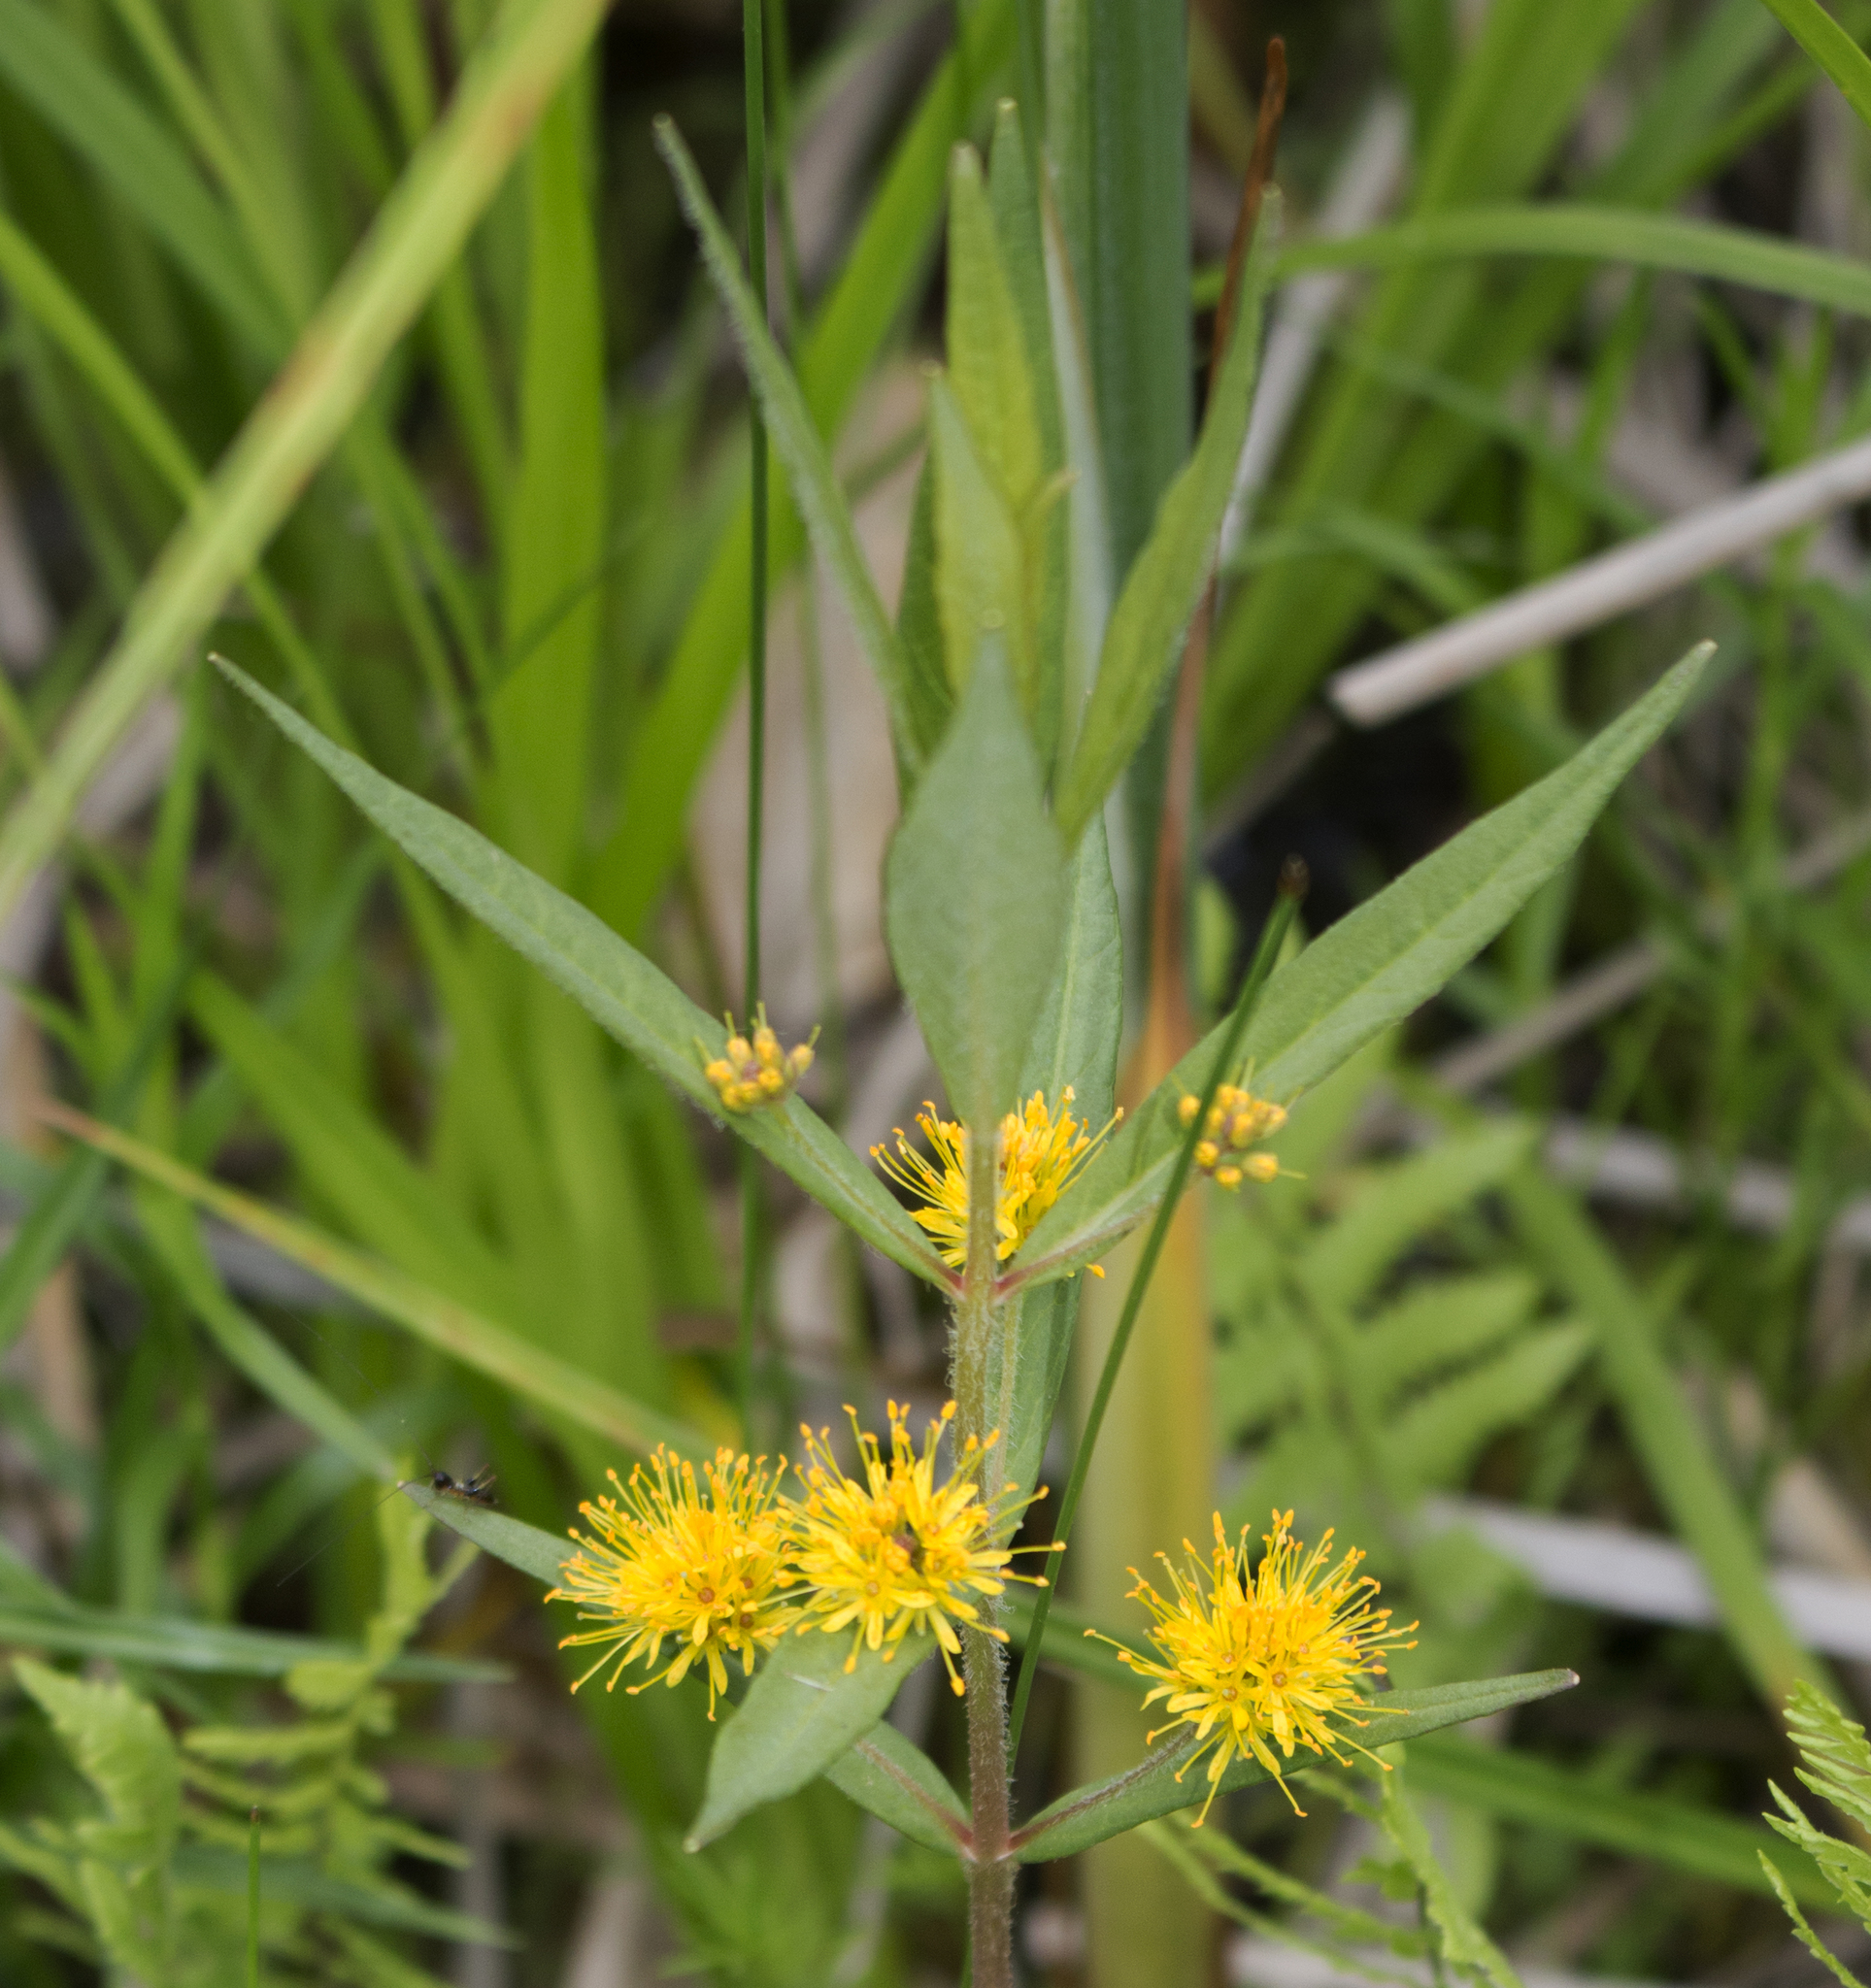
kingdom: Plantae
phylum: Tracheophyta
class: Magnoliopsida
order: Ericales
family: Primulaceae
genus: Lysimachia
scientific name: Lysimachia thyrsiflora
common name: Tufted loosestrife
